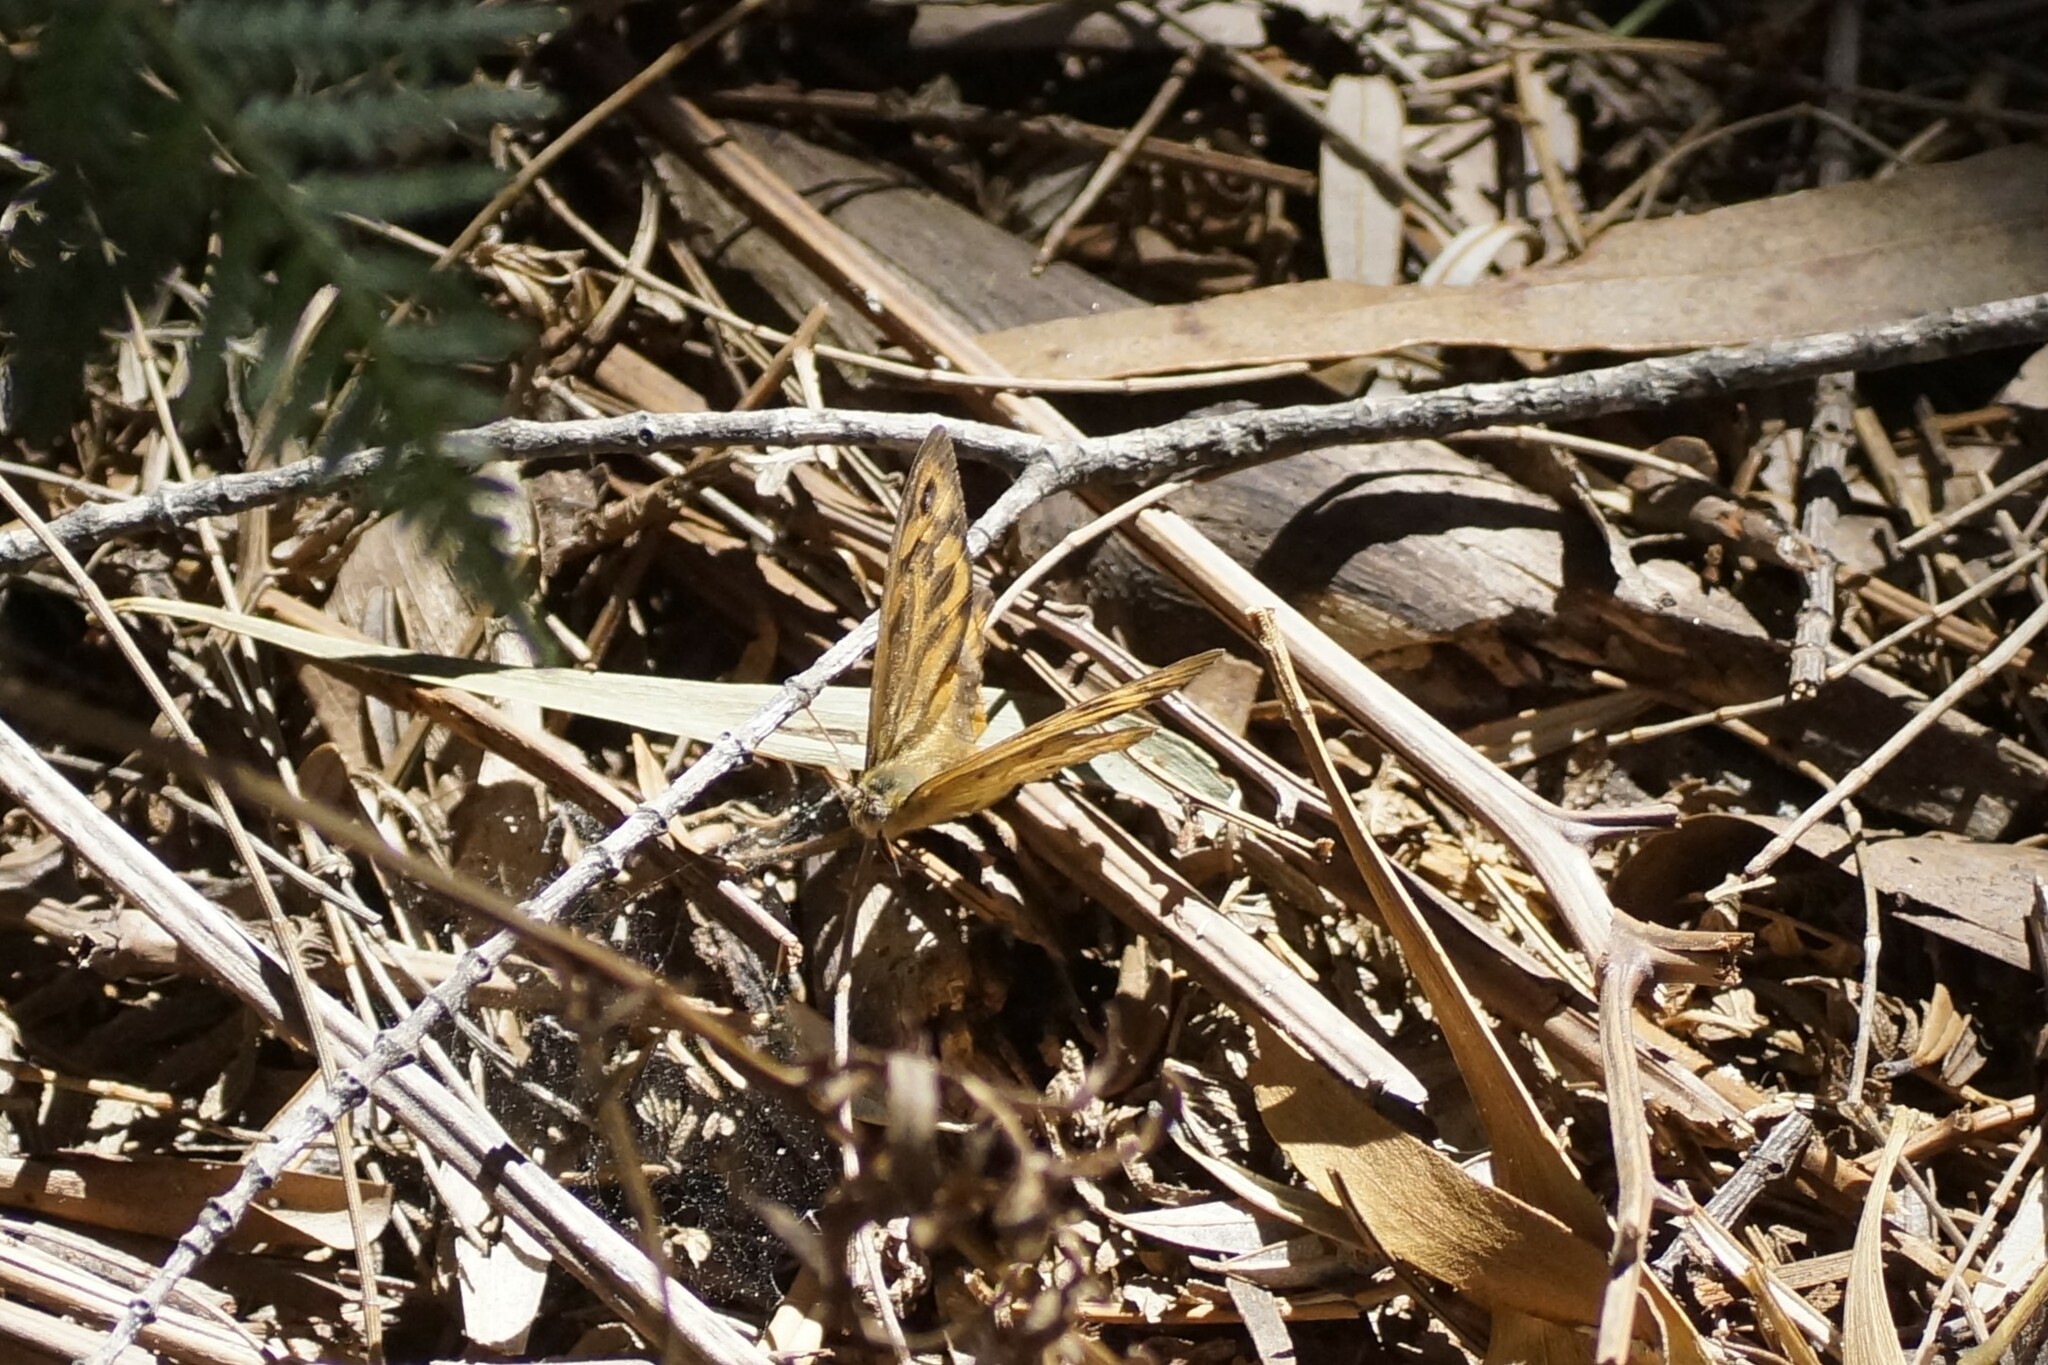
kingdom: Animalia
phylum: Arthropoda
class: Insecta
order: Lepidoptera
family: Nymphalidae
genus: Heteronympha
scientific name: Heteronympha merope
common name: Common brown
